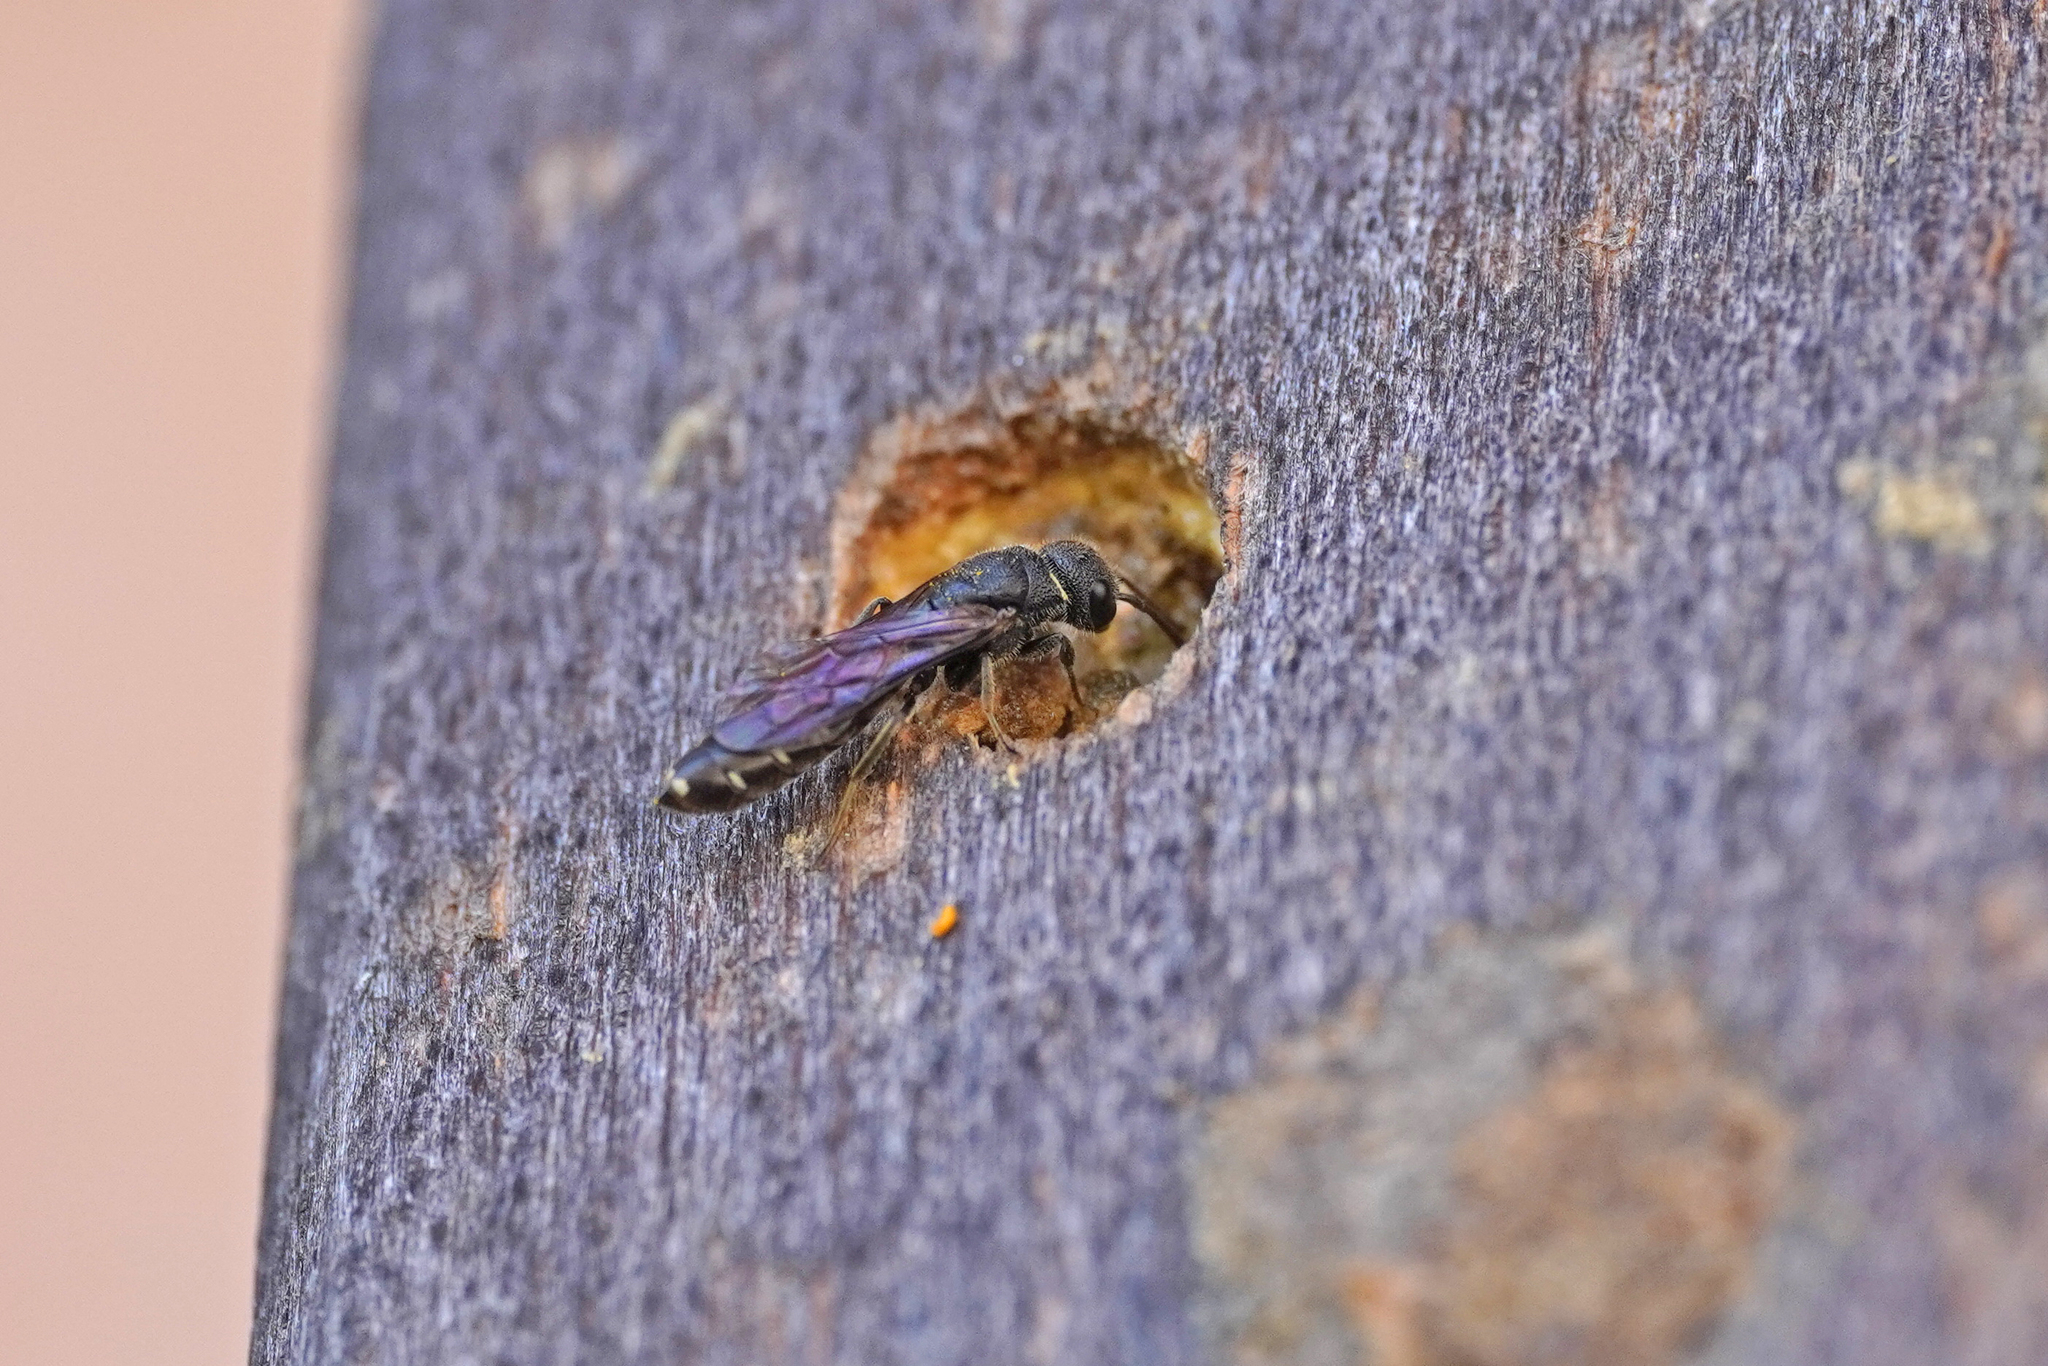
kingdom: Animalia
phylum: Arthropoda
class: Insecta
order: Hymenoptera
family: Sapygidae
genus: Sapygina
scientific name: Sapygina decemguttata
